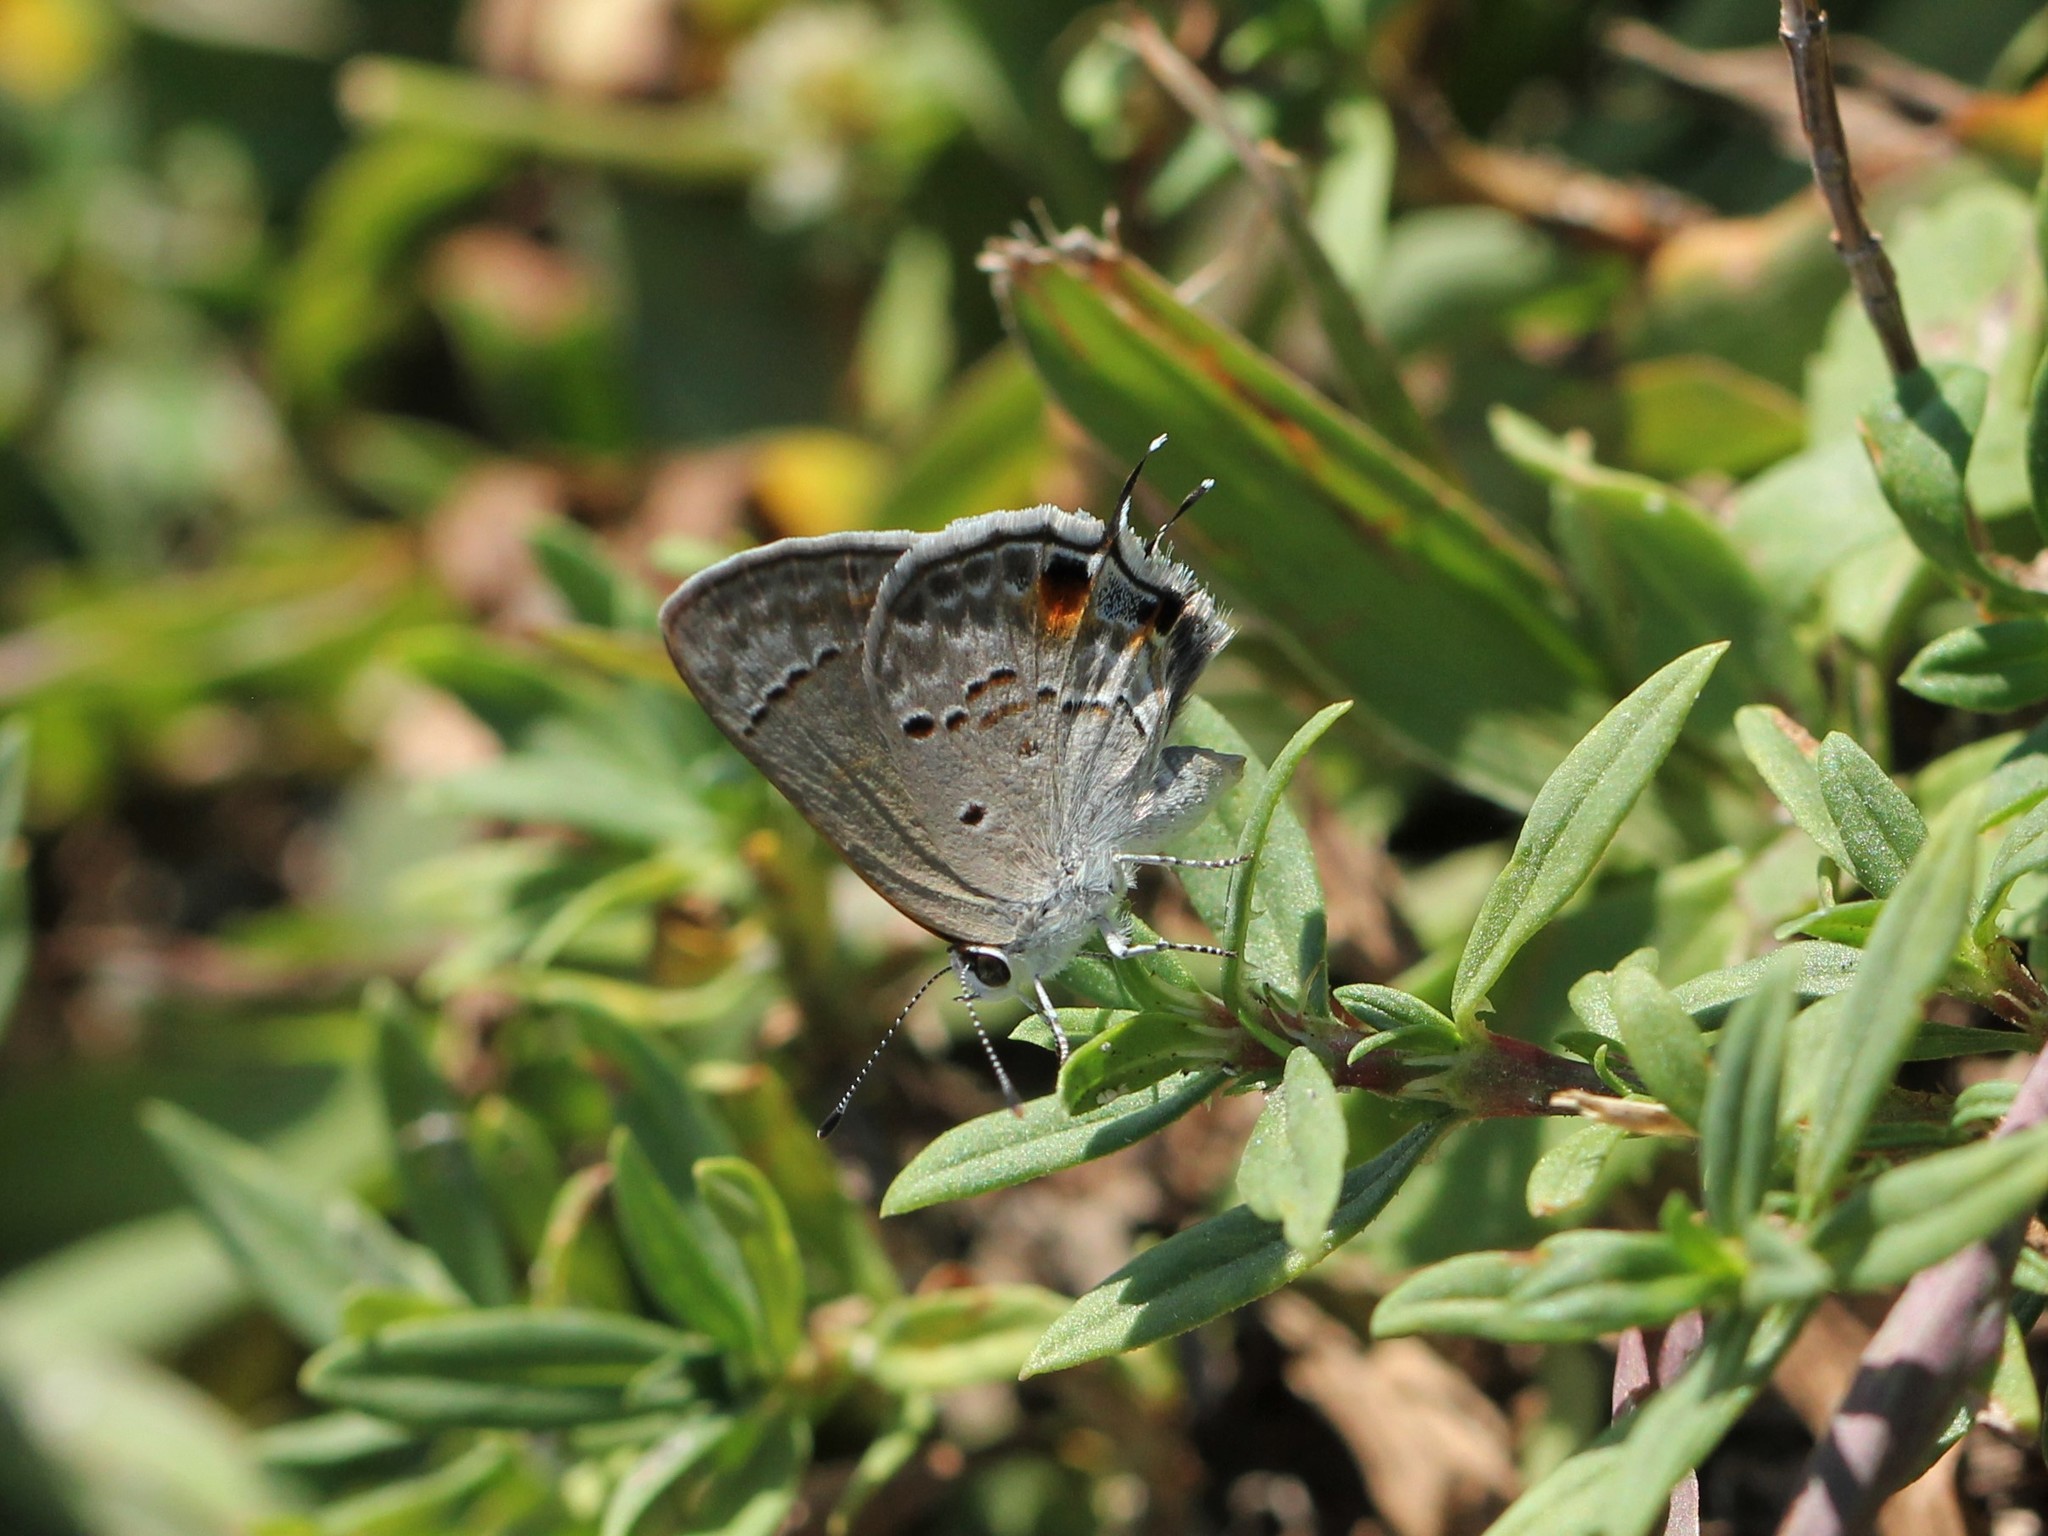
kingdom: Animalia
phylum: Arthropoda
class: Insecta
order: Lepidoptera
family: Lycaenidae
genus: Callicista
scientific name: Callicista columella
